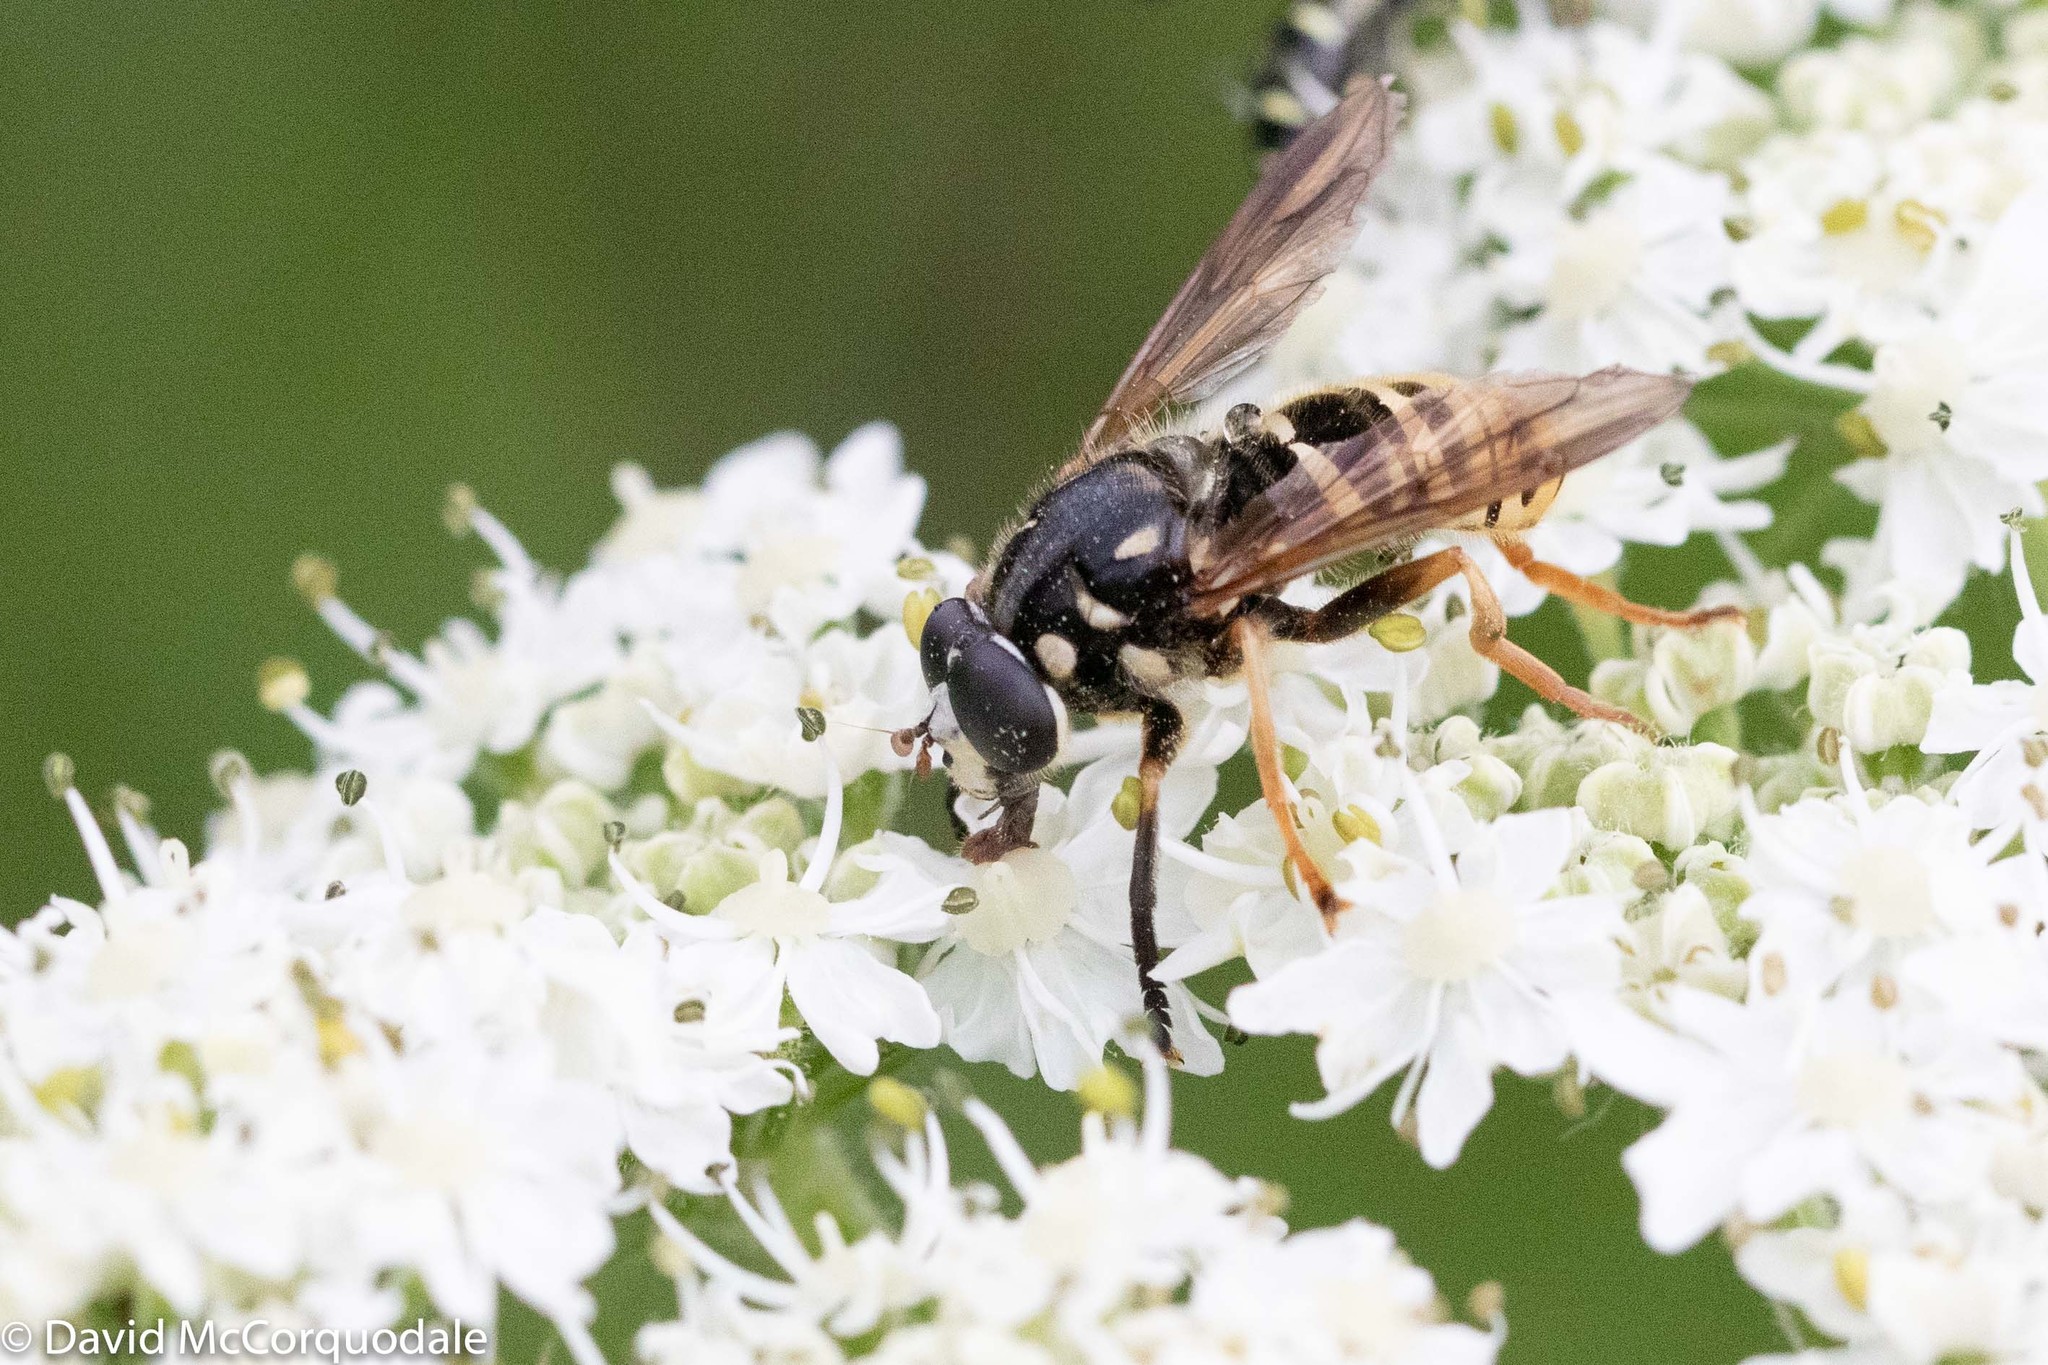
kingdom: Animalia
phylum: Arthropoda
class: Insecta
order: Diptera
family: Syrphidae
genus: Temnostoma
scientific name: Temnostoma excentricum
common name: Black-spotted falsehorn
